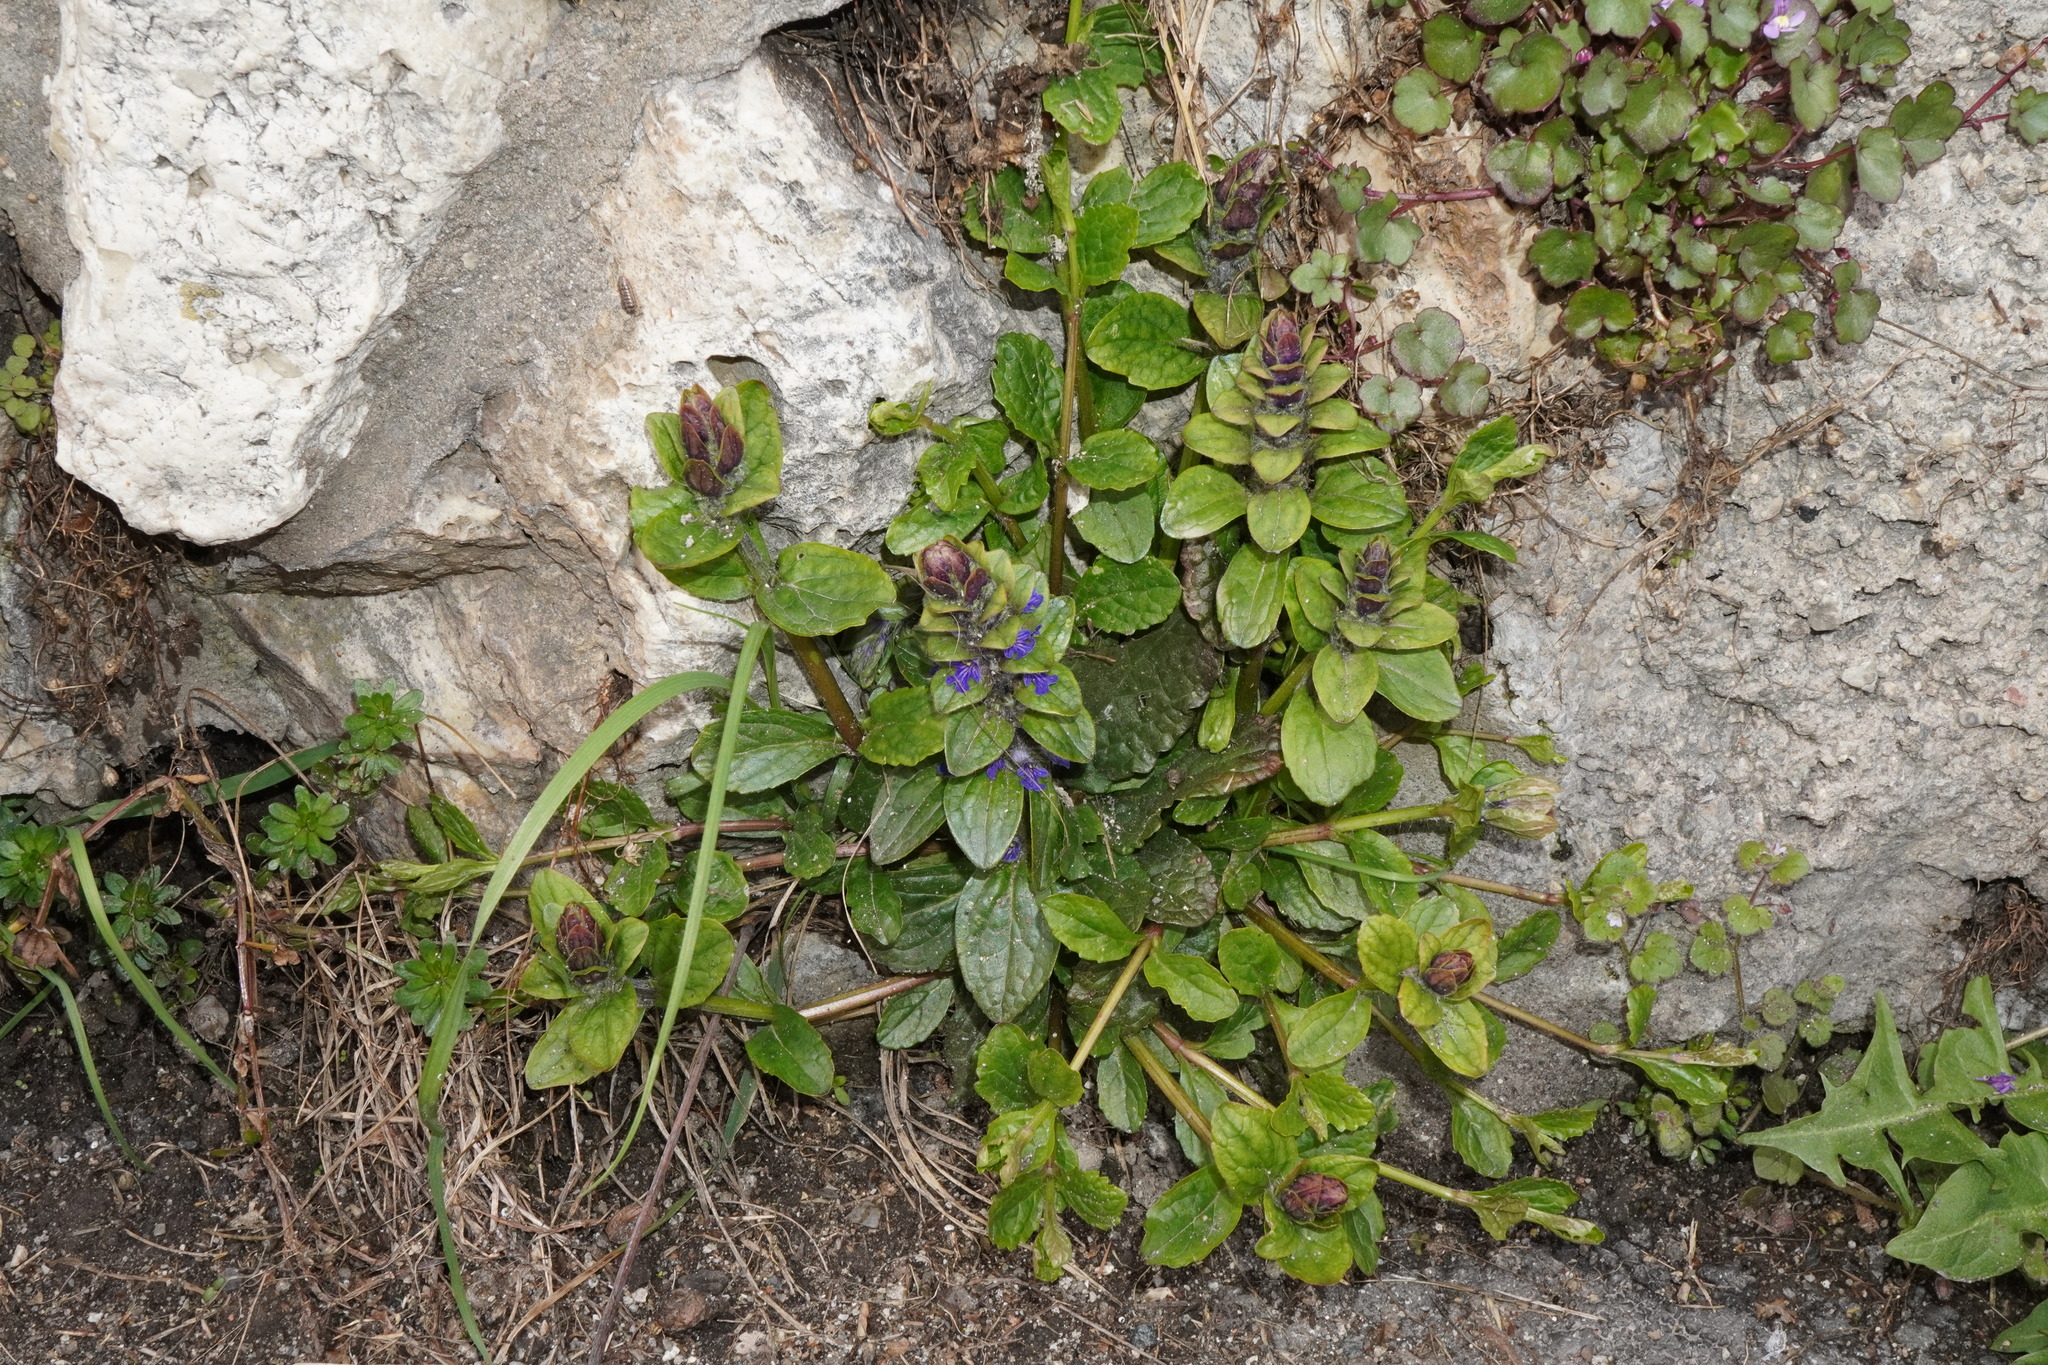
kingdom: Plantae
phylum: Tracheophyta
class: Magnoliopsida
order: Lamiales
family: Lamiaceae
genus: Ajuga
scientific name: Ajuga reptans
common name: Bugle
